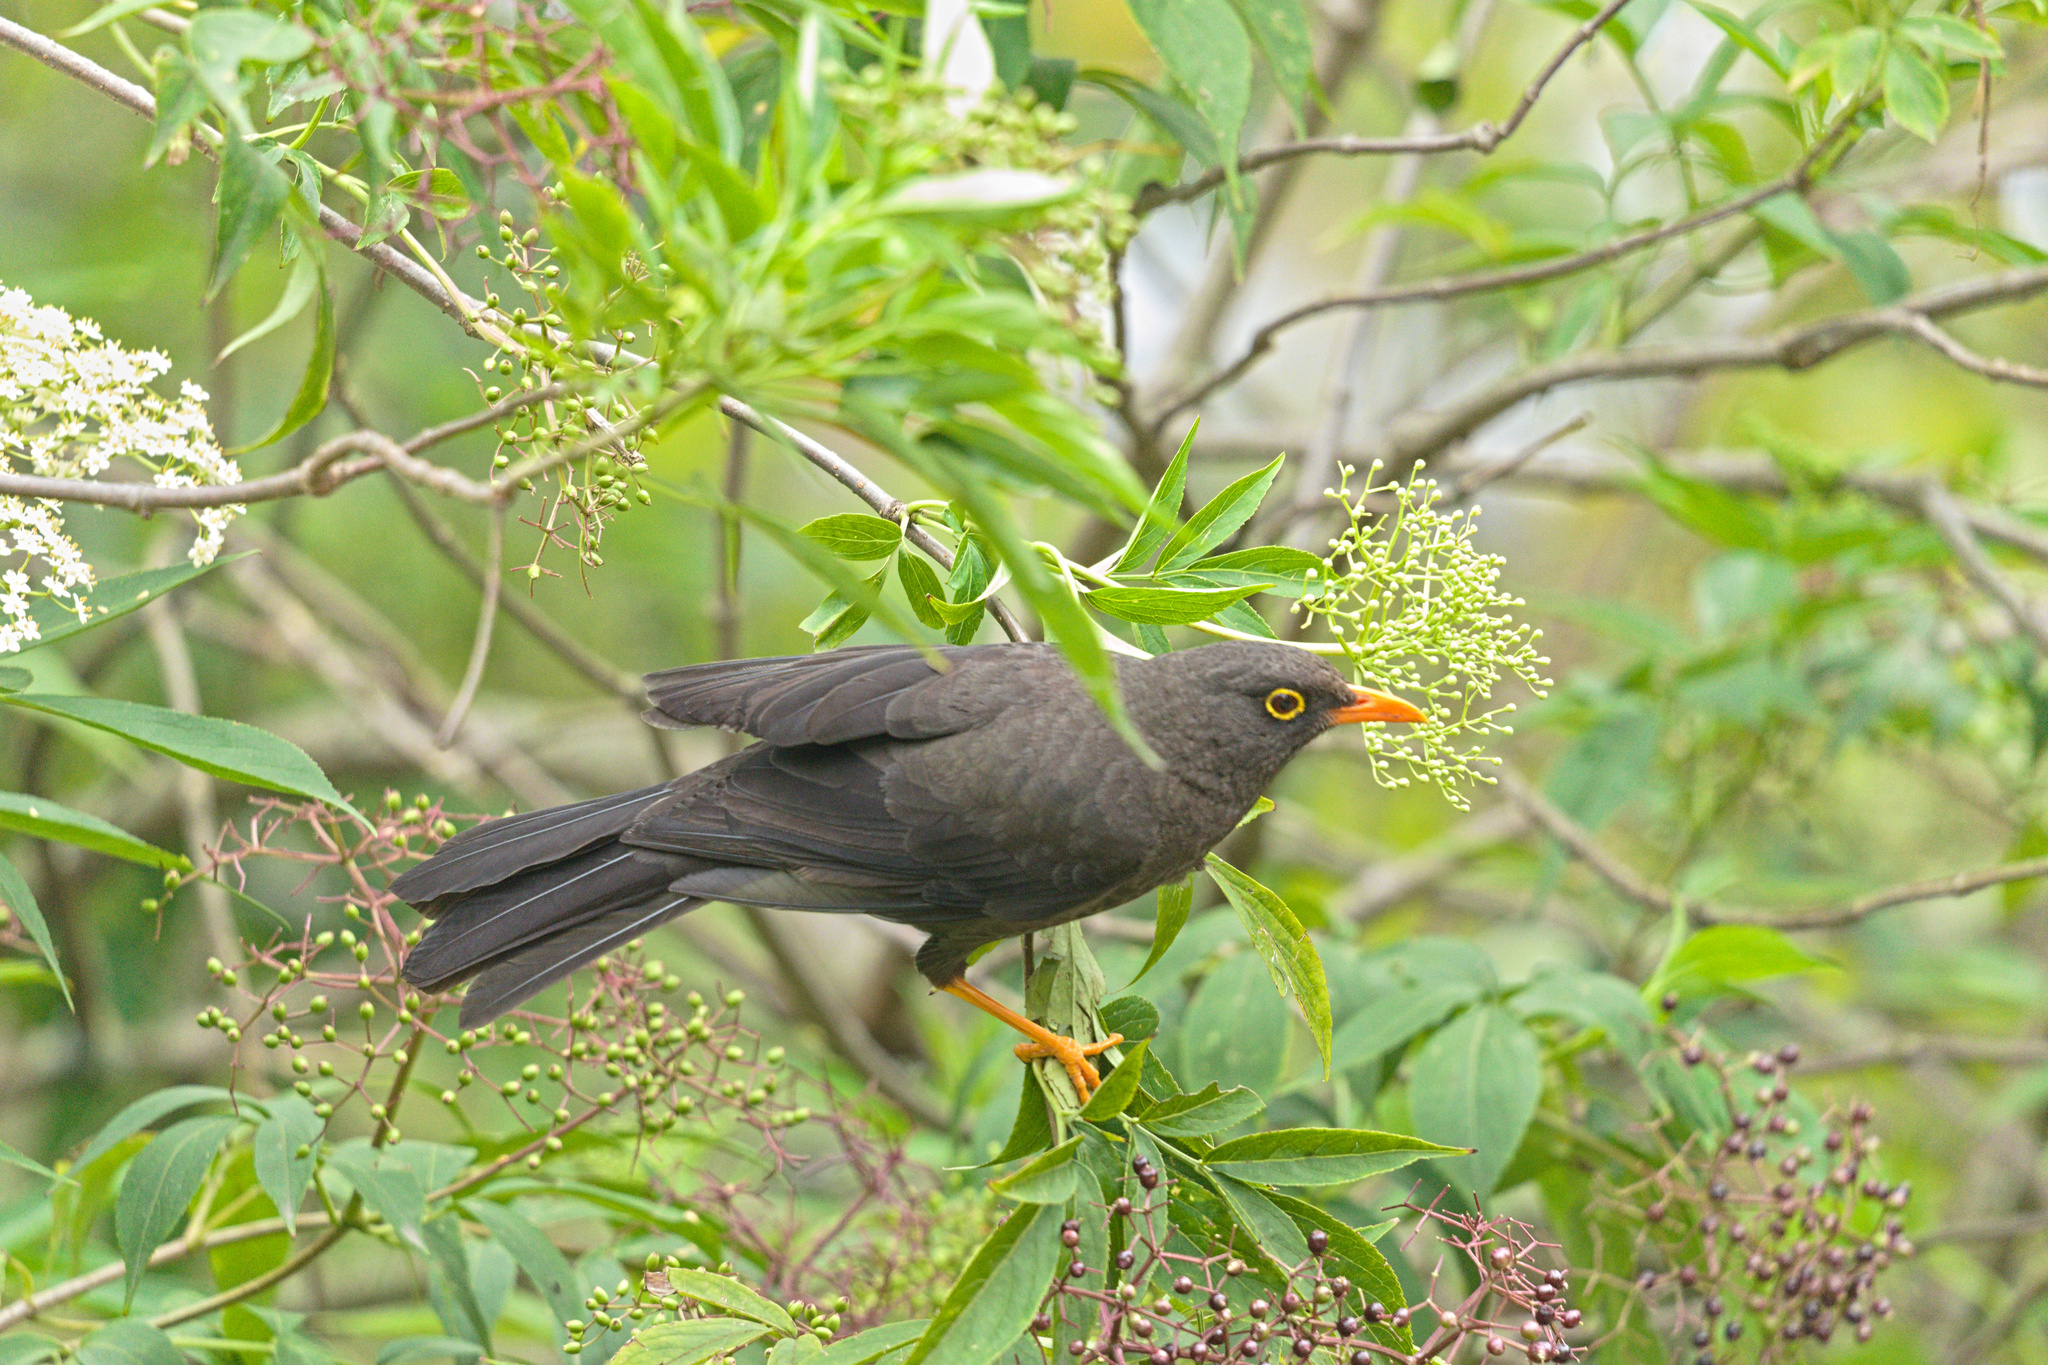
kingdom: Animalia
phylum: Chordata
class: Aves
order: Passeriformes
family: Turdidae
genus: Turdus
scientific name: Turdus fuscater
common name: Great thrush
